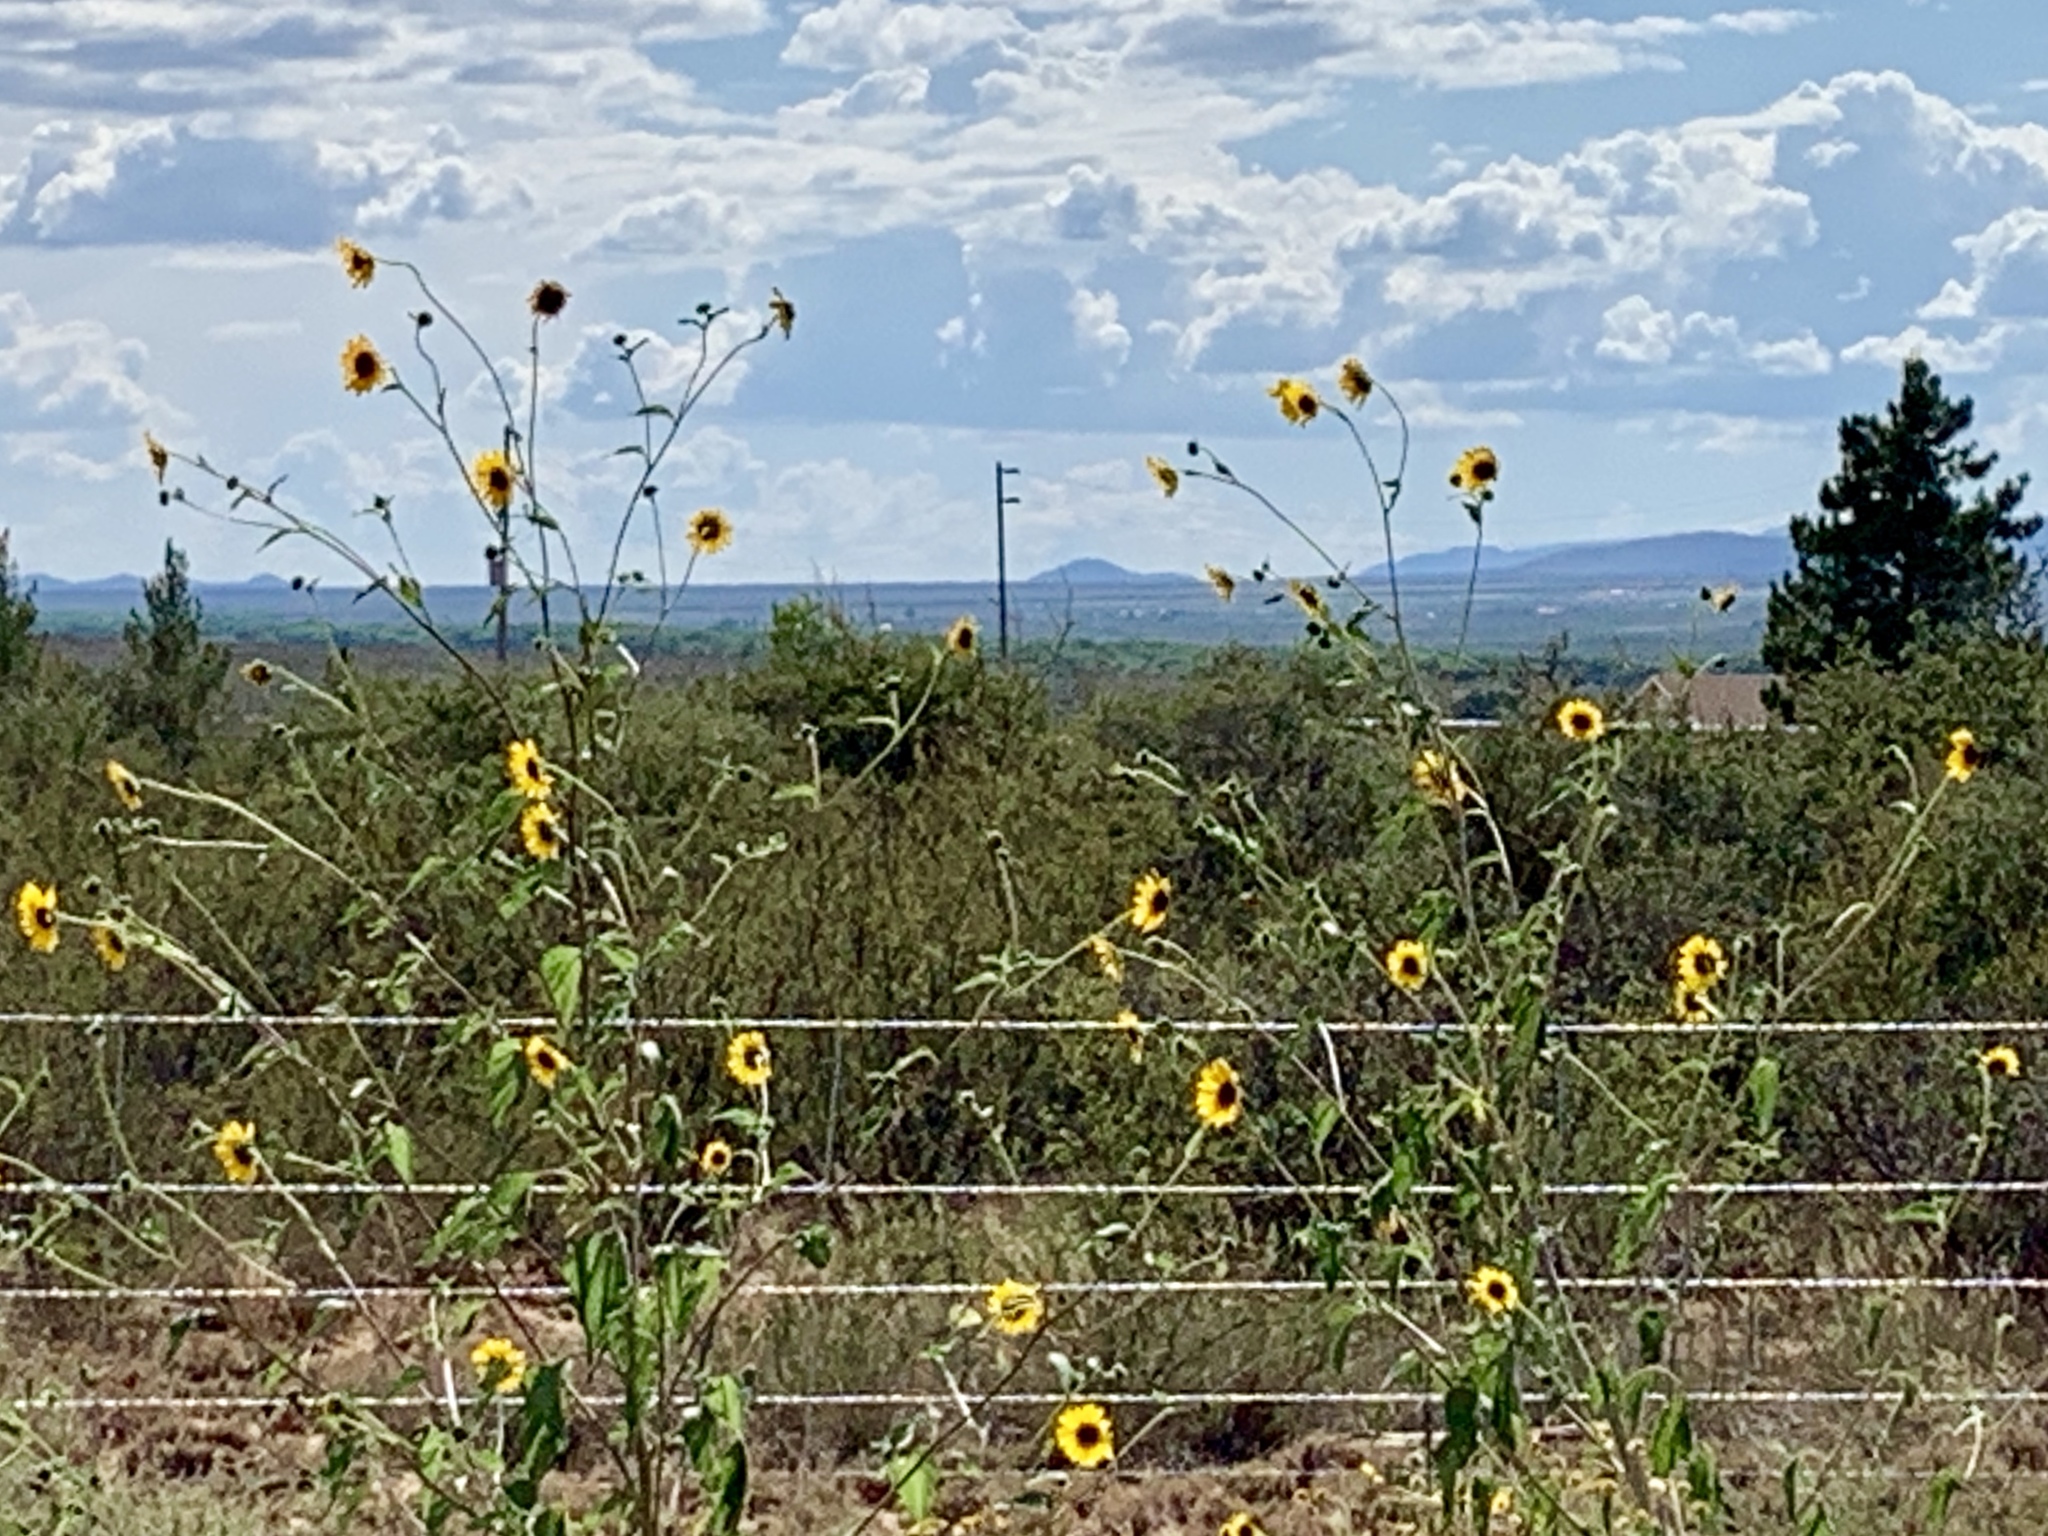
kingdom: Plantae
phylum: Tracheophyta
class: Magnoliopsida
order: Asterales
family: Asteraceae
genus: Helianthus
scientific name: Helianthus annuus
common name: Sunflower
